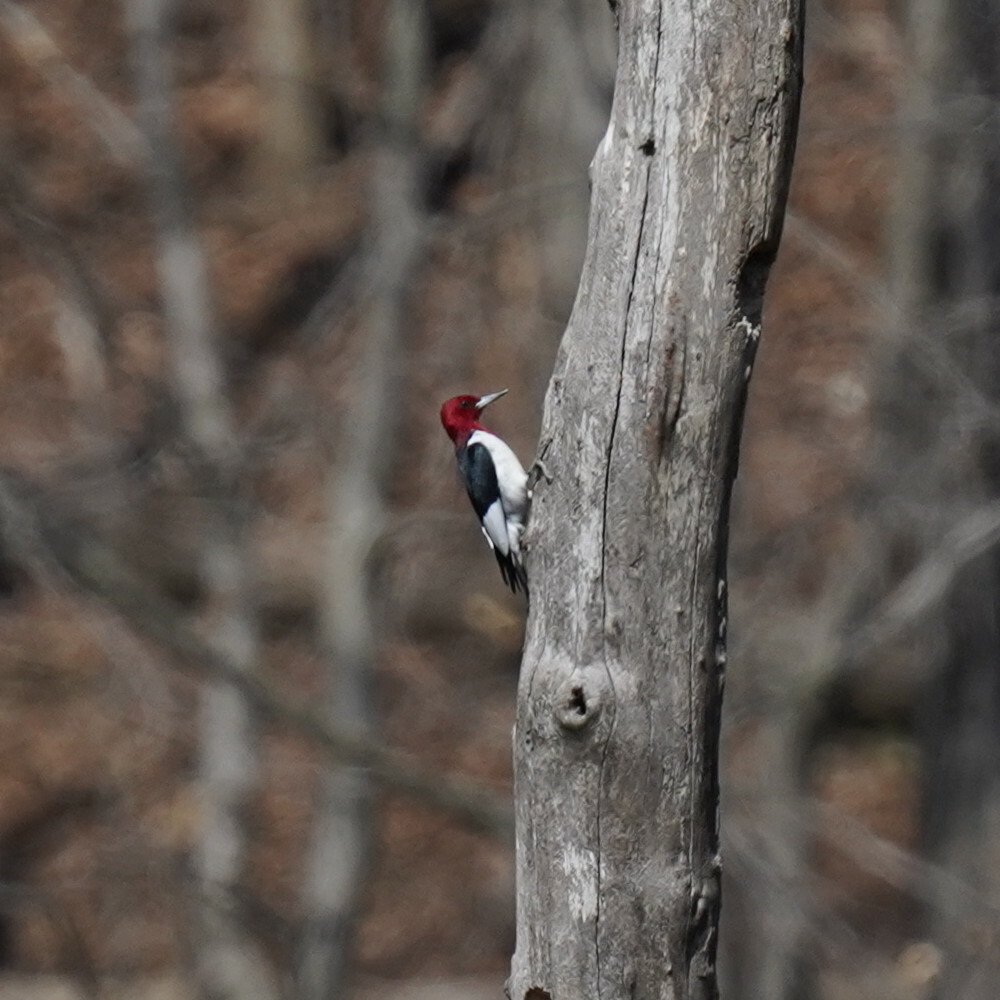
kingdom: Animalia
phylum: Chordata
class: Aves
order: Piciformes
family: Picidae
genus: Melanerpes
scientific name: Melanerpes erythrocephalus
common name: Red-headed woodpecker
